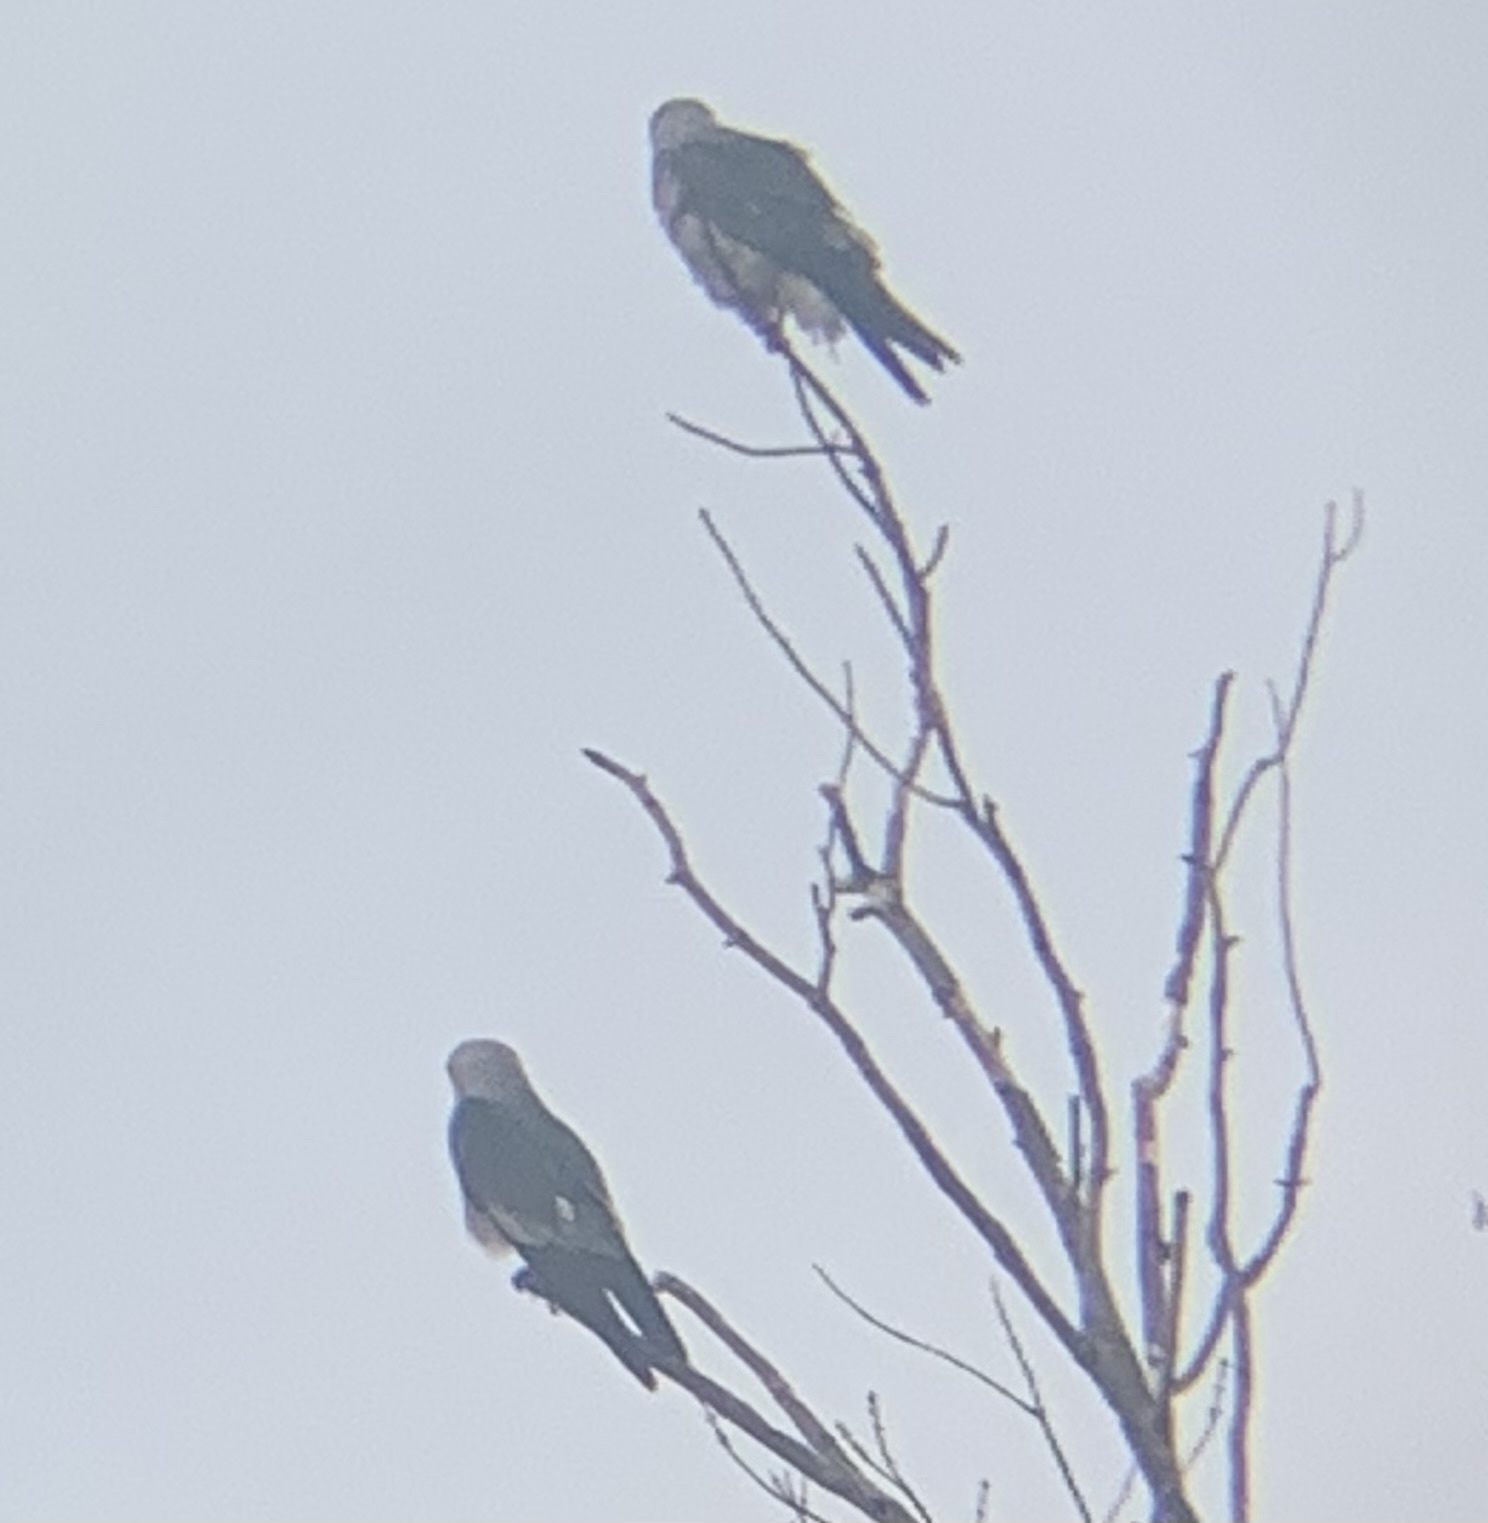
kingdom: Animalia
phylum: Chordata
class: Aves
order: Accipitriformes
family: Accipitridae
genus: Ictinia
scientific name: Ictinia mississippiensis
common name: Mississippi kite
